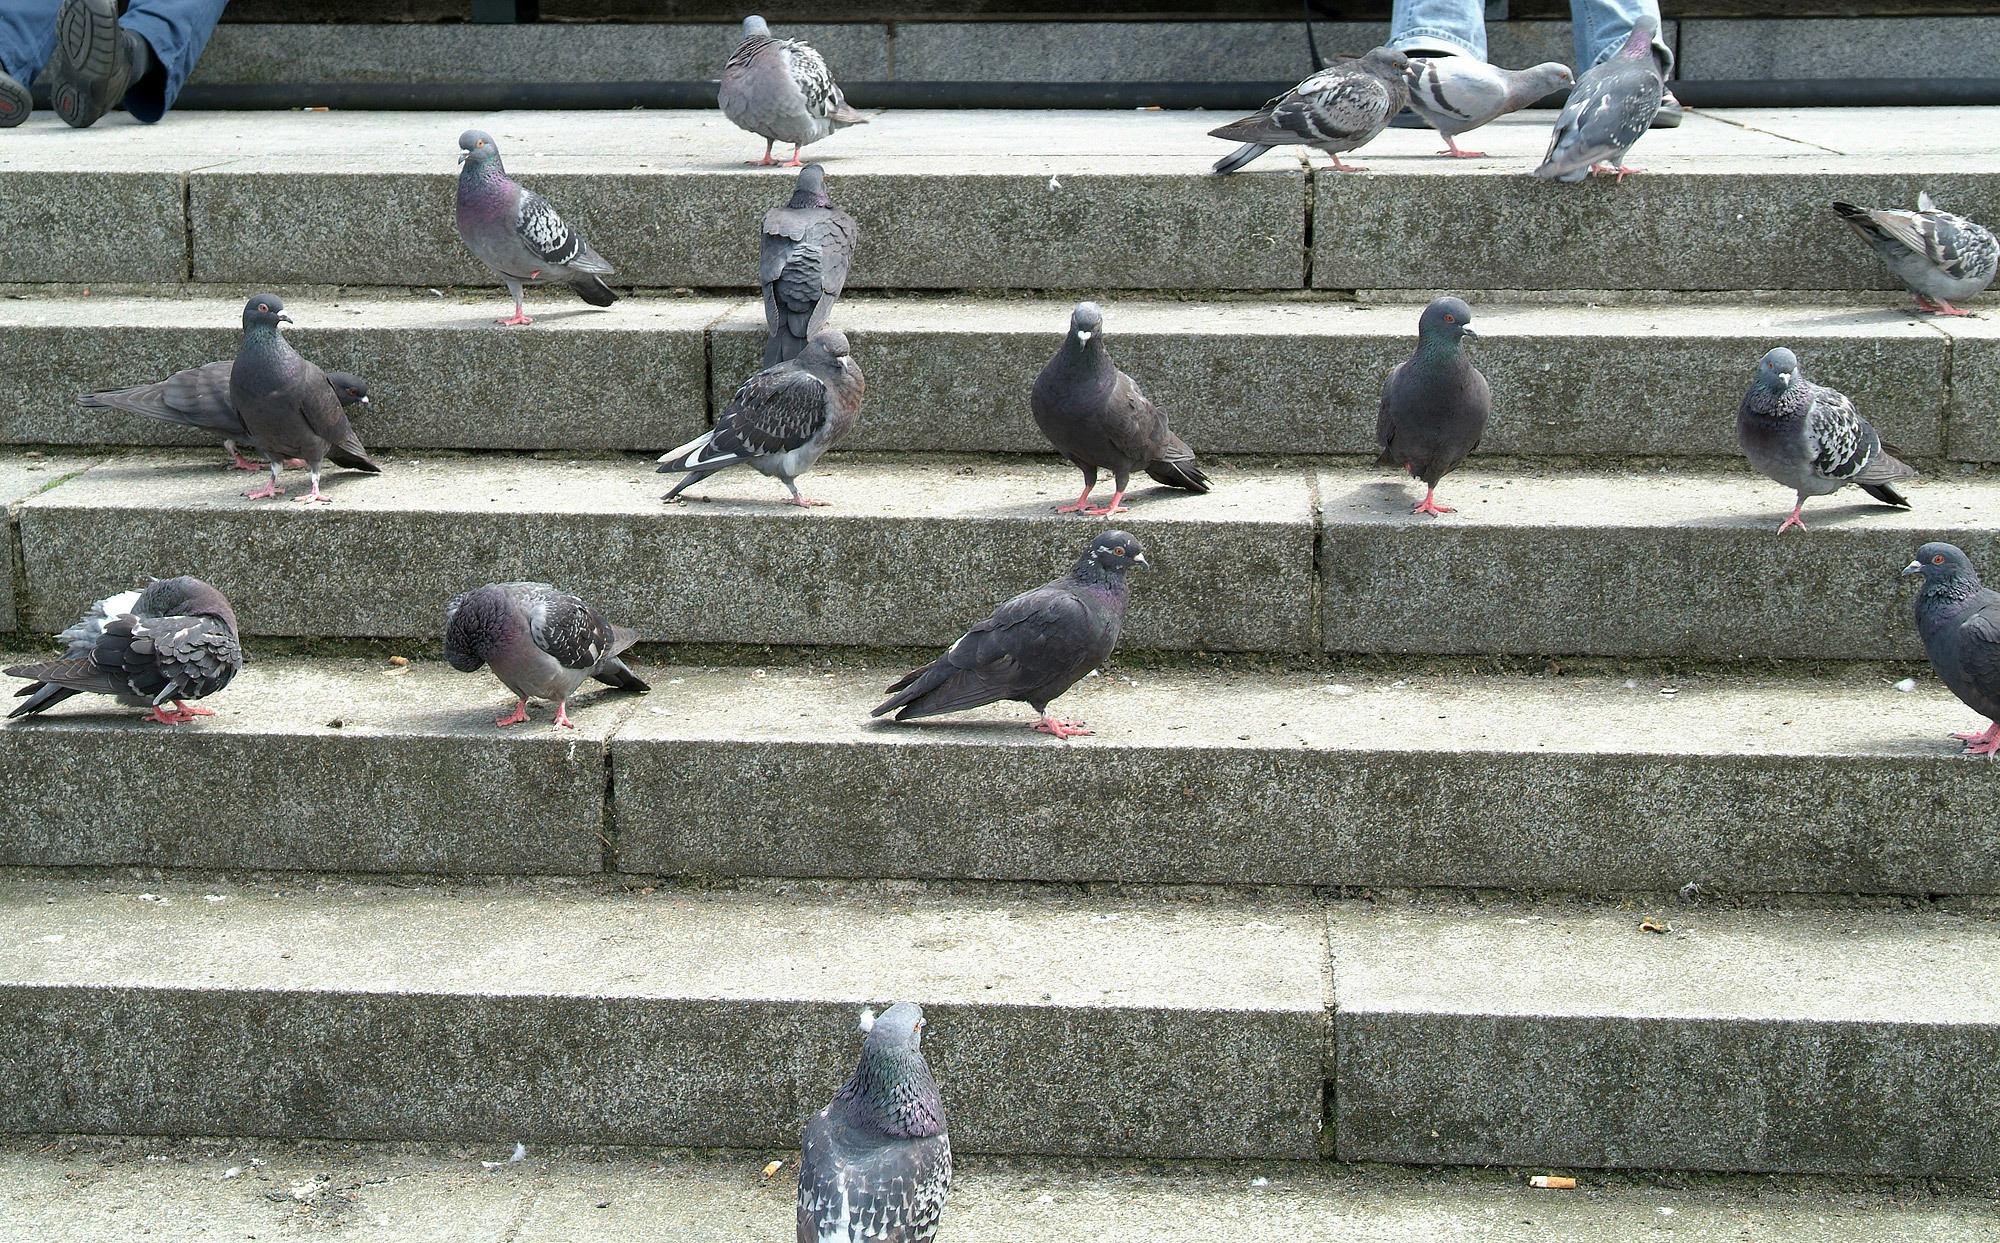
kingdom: Animalia
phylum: Chordata
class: Aves
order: Columbiformes
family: Columbidae
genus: Columba
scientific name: Columba livia
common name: Rock pigeon
